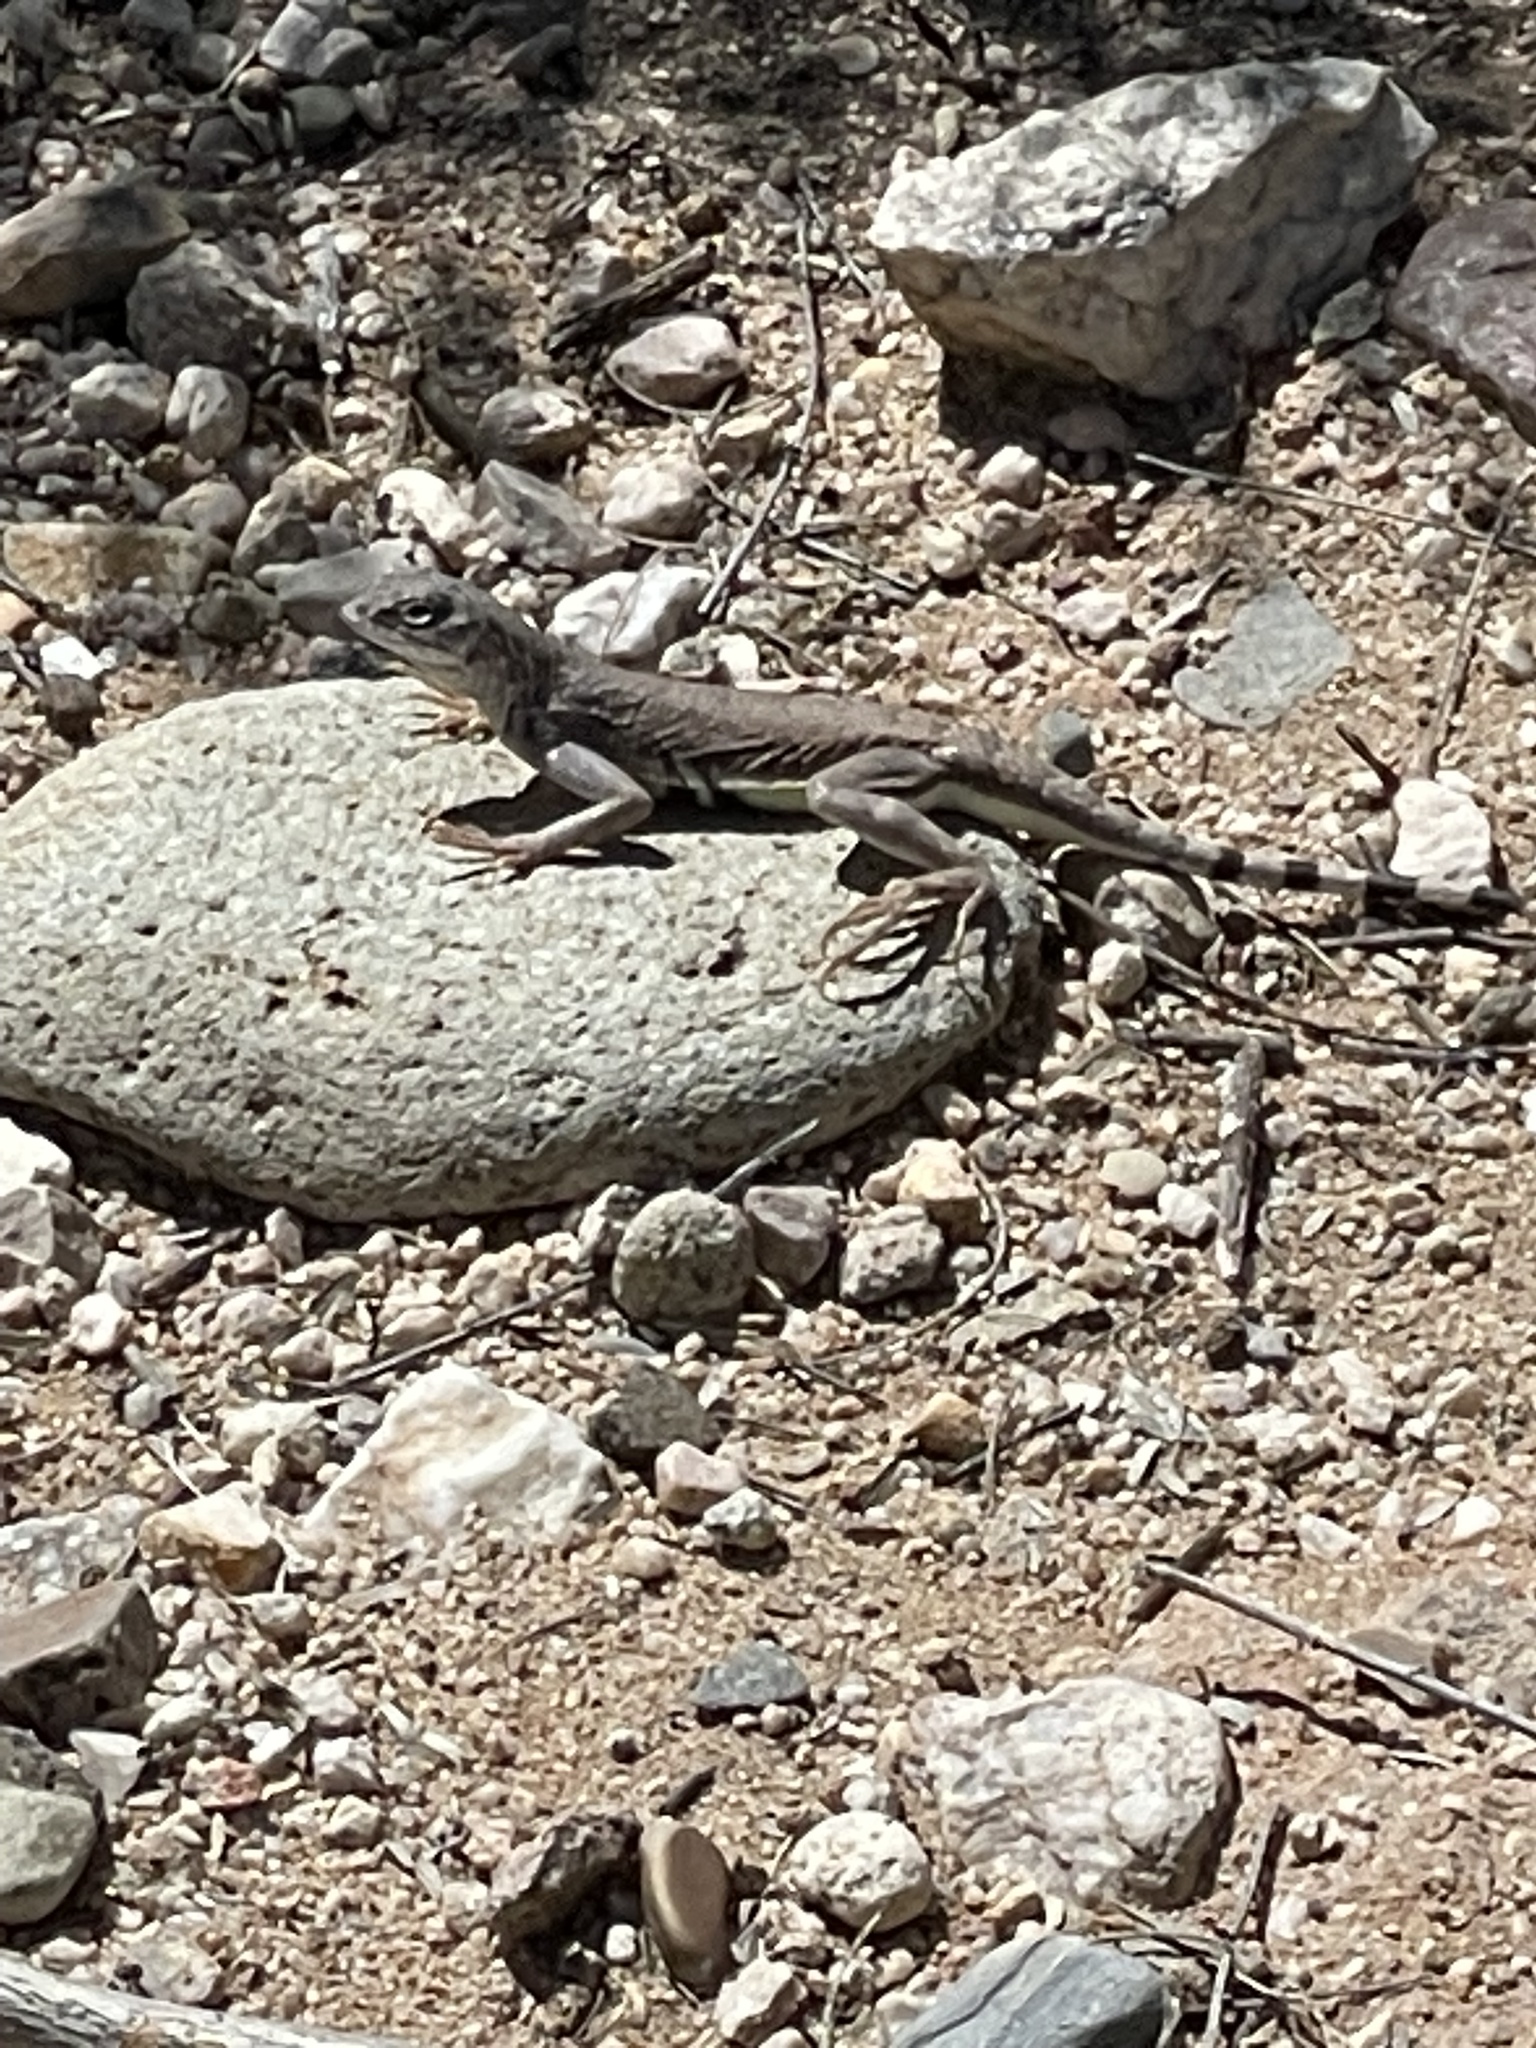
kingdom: Animalia
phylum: Chordata
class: Squamata
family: Phrynosomatidae
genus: Callisaurus
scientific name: Callisaurus draconoides
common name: Zebra-tailed lizard
